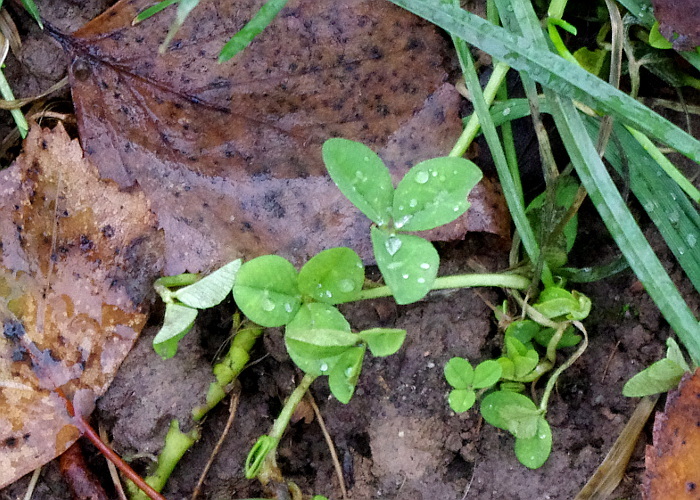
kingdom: Plantae
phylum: Tracheophyta
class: Magnoliopsida
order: Fabales
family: Fabaceae
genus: Trifolium
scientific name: Trifolium repens
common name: White clover
